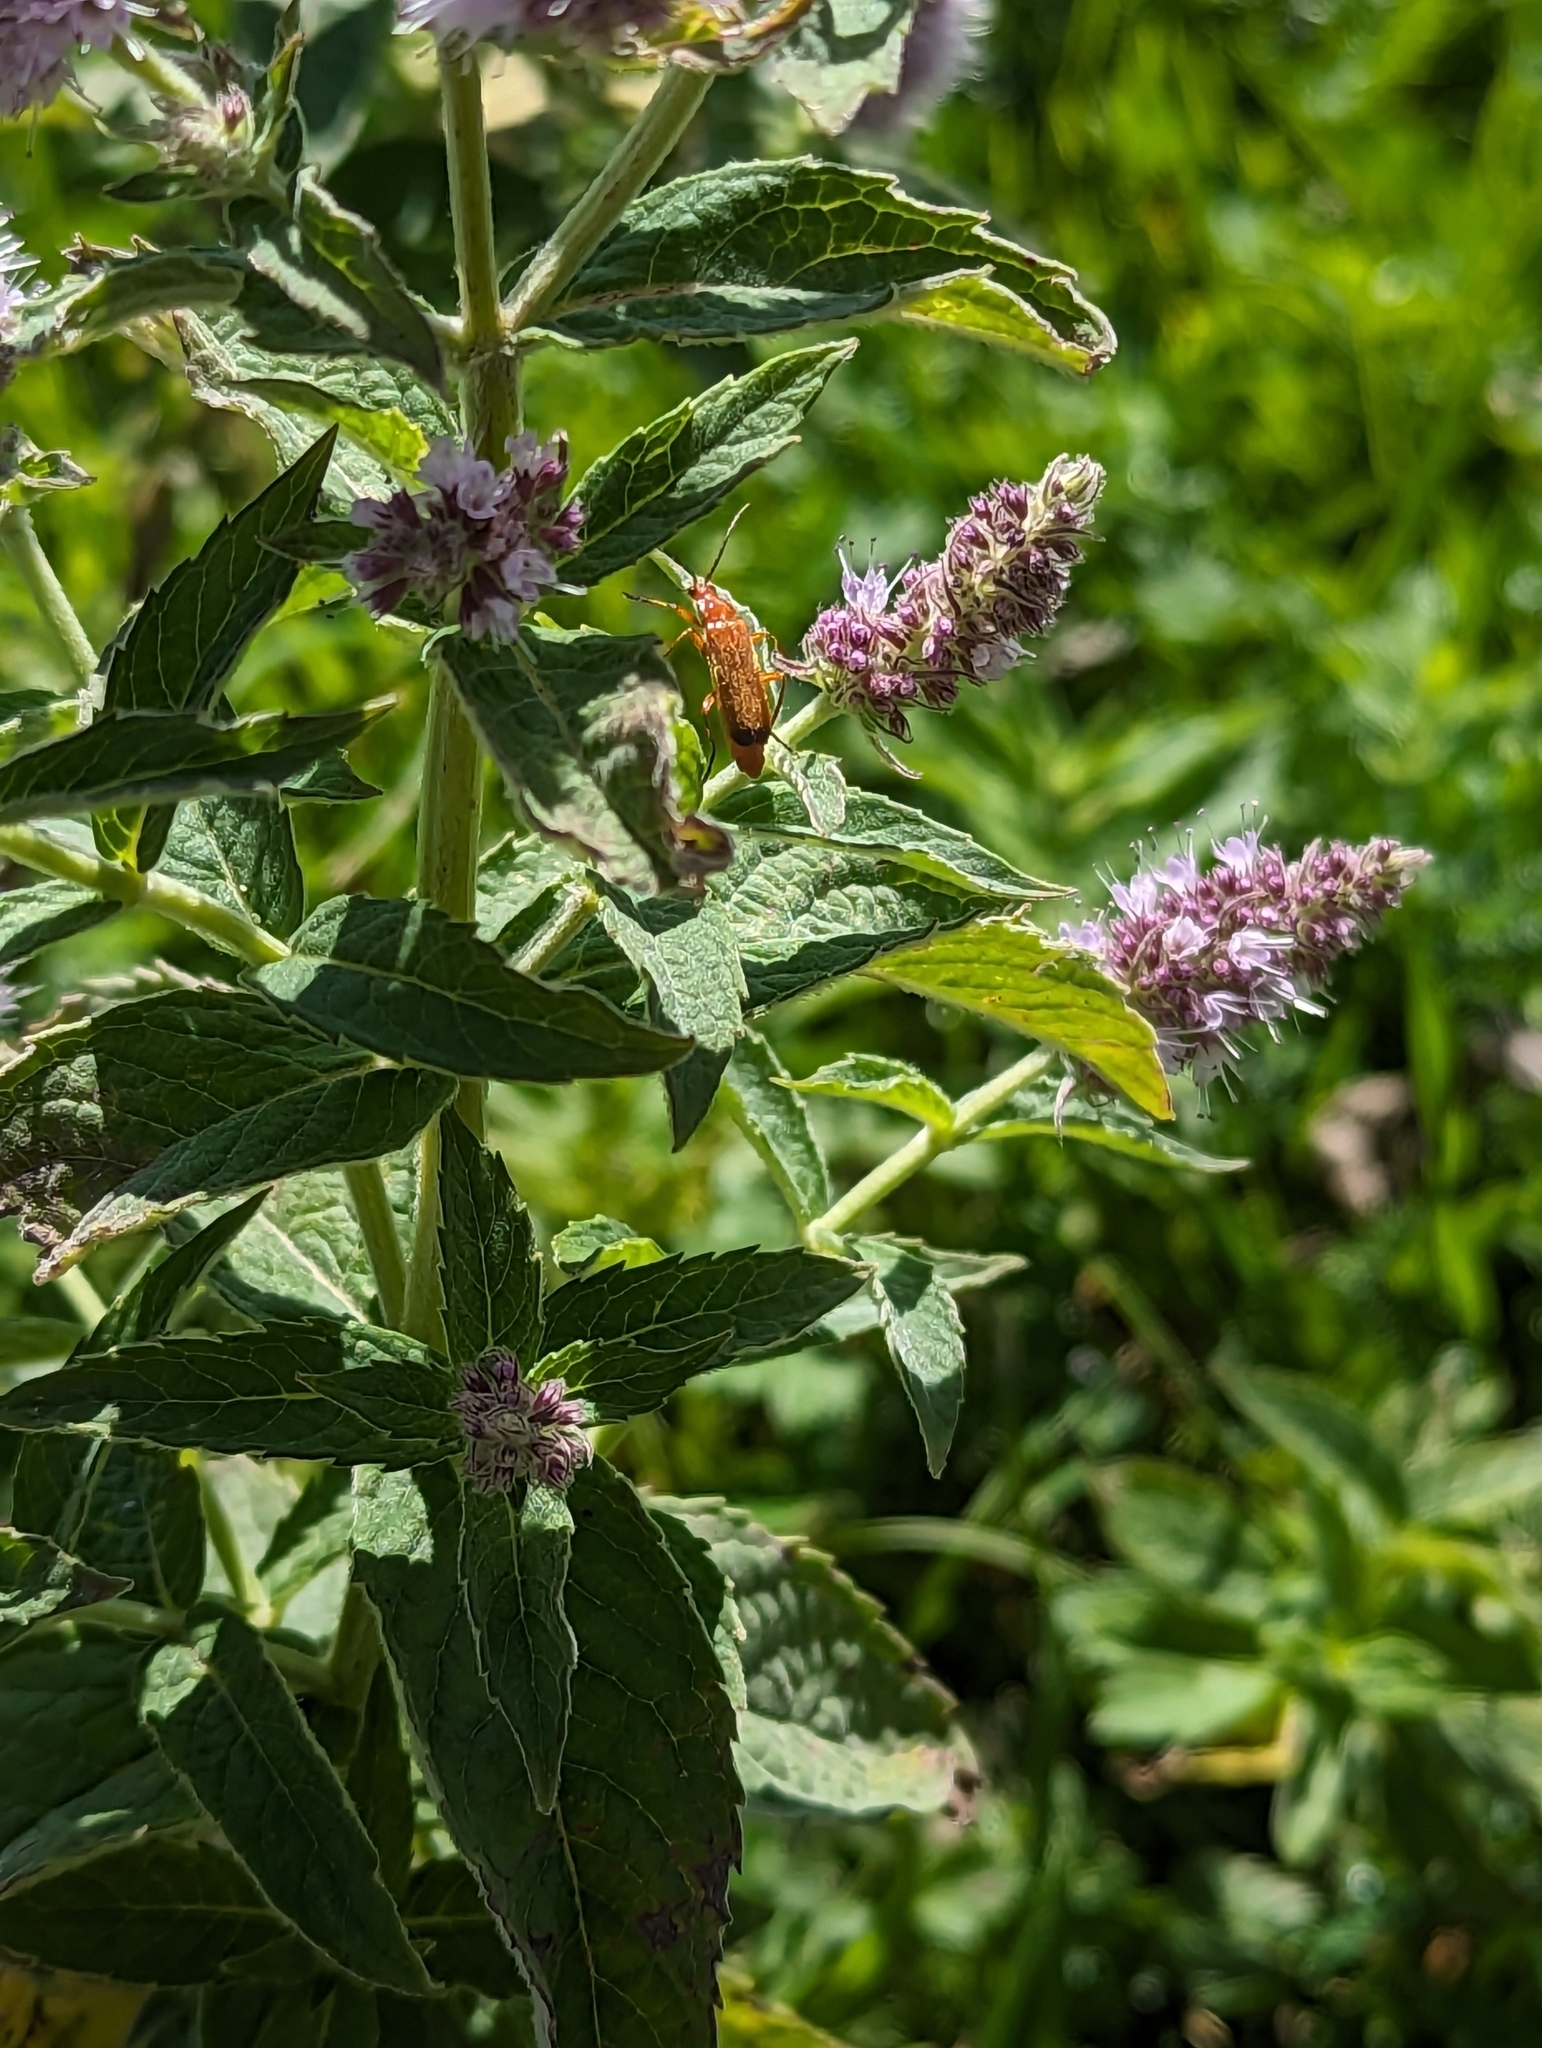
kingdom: Animalia
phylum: Arthropoda
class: Insecta
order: Coleoptera
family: Cantharidae
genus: Rhagonycha
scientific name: Rhagonycha fulva
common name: Common red soldier beetle
